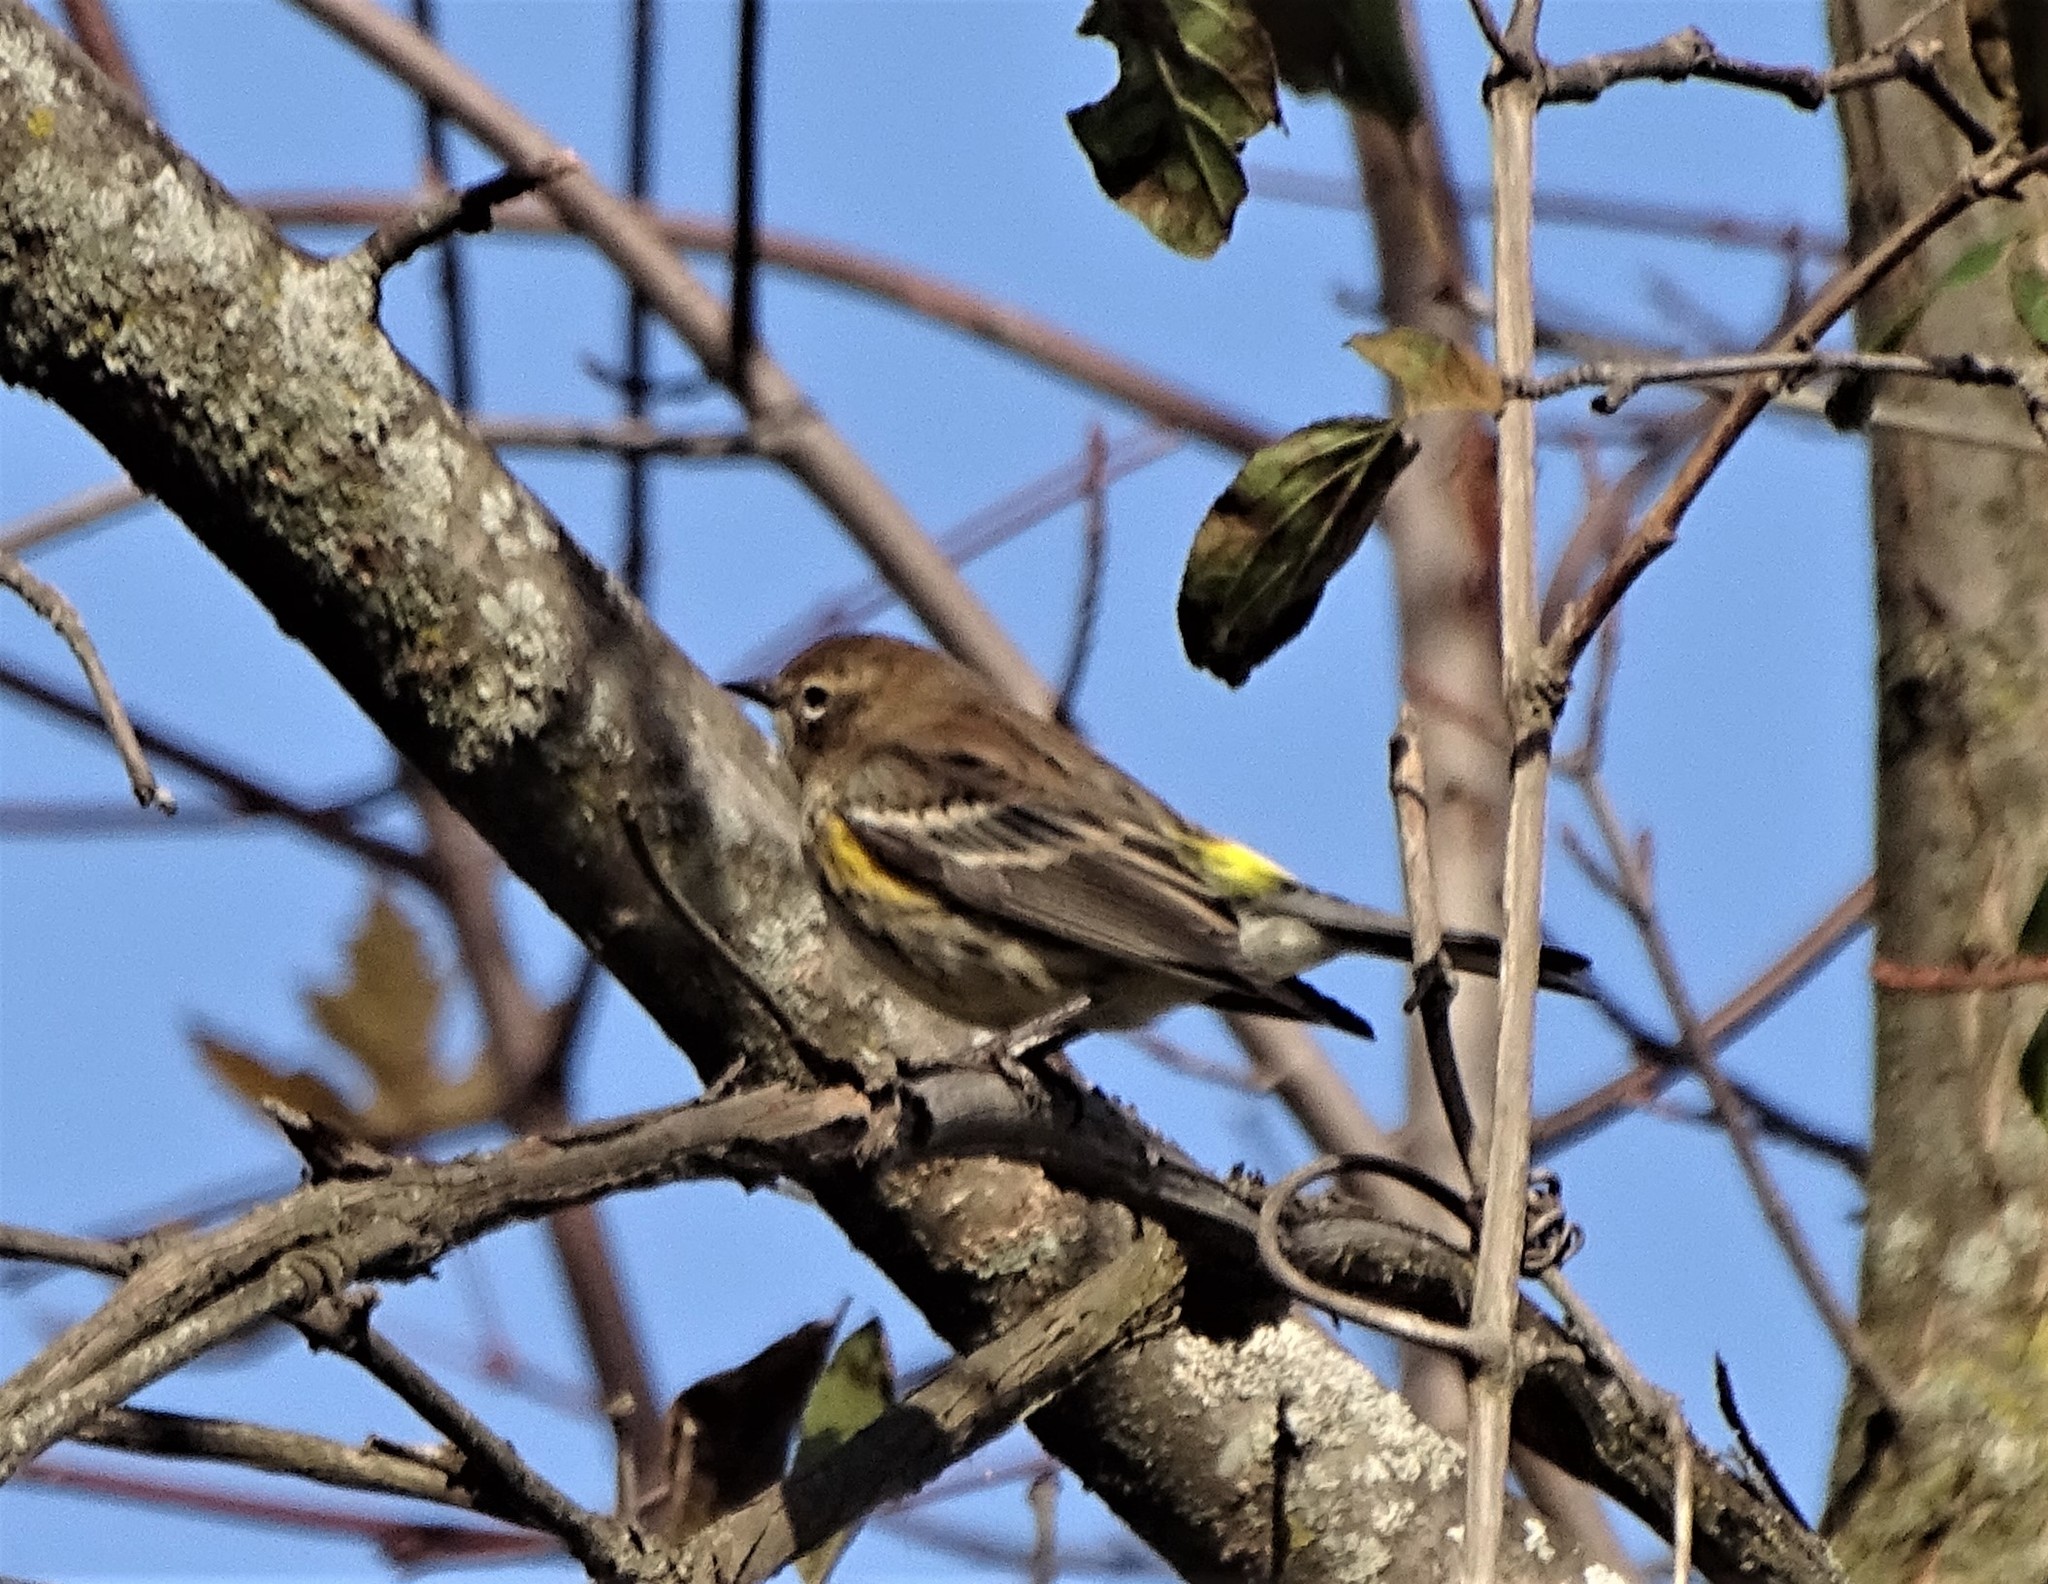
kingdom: Animalia
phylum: Chordata
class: Aves
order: Passeriformes
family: Parulidae
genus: Setophaga
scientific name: Setophaga coronata
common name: Myrtle warbler
